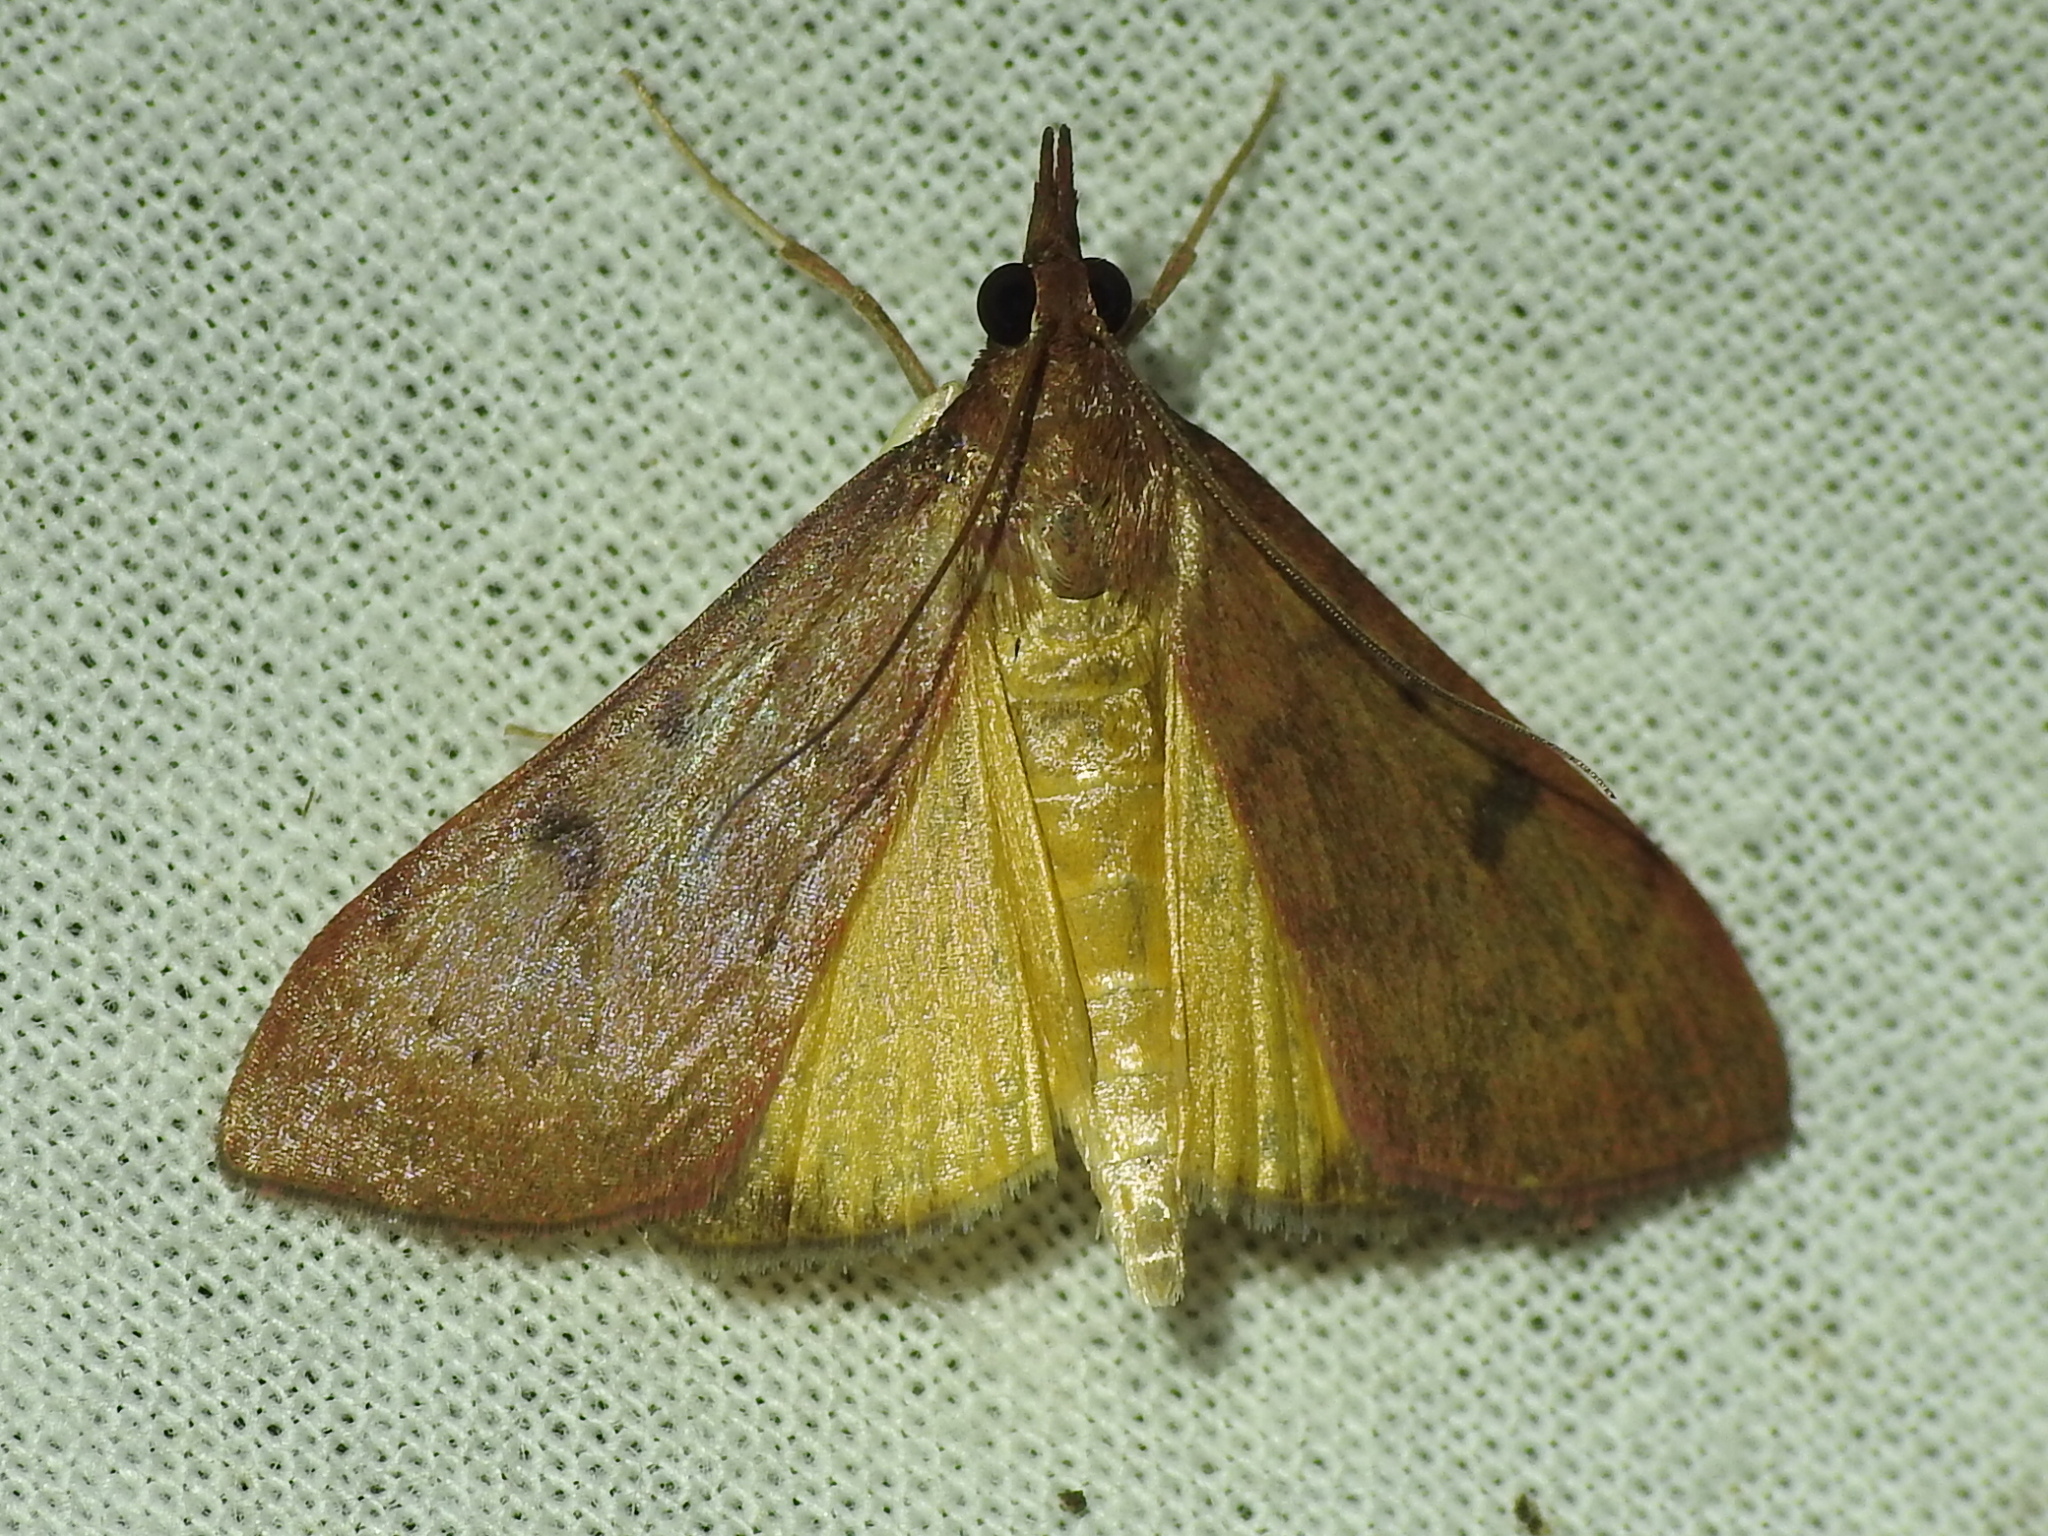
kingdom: Animalia
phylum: Arthropoda
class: Insecta
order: Lepidoptera
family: Crambidae
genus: Uresiphita
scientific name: Uresiphita reversalis
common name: Genista broom moth
